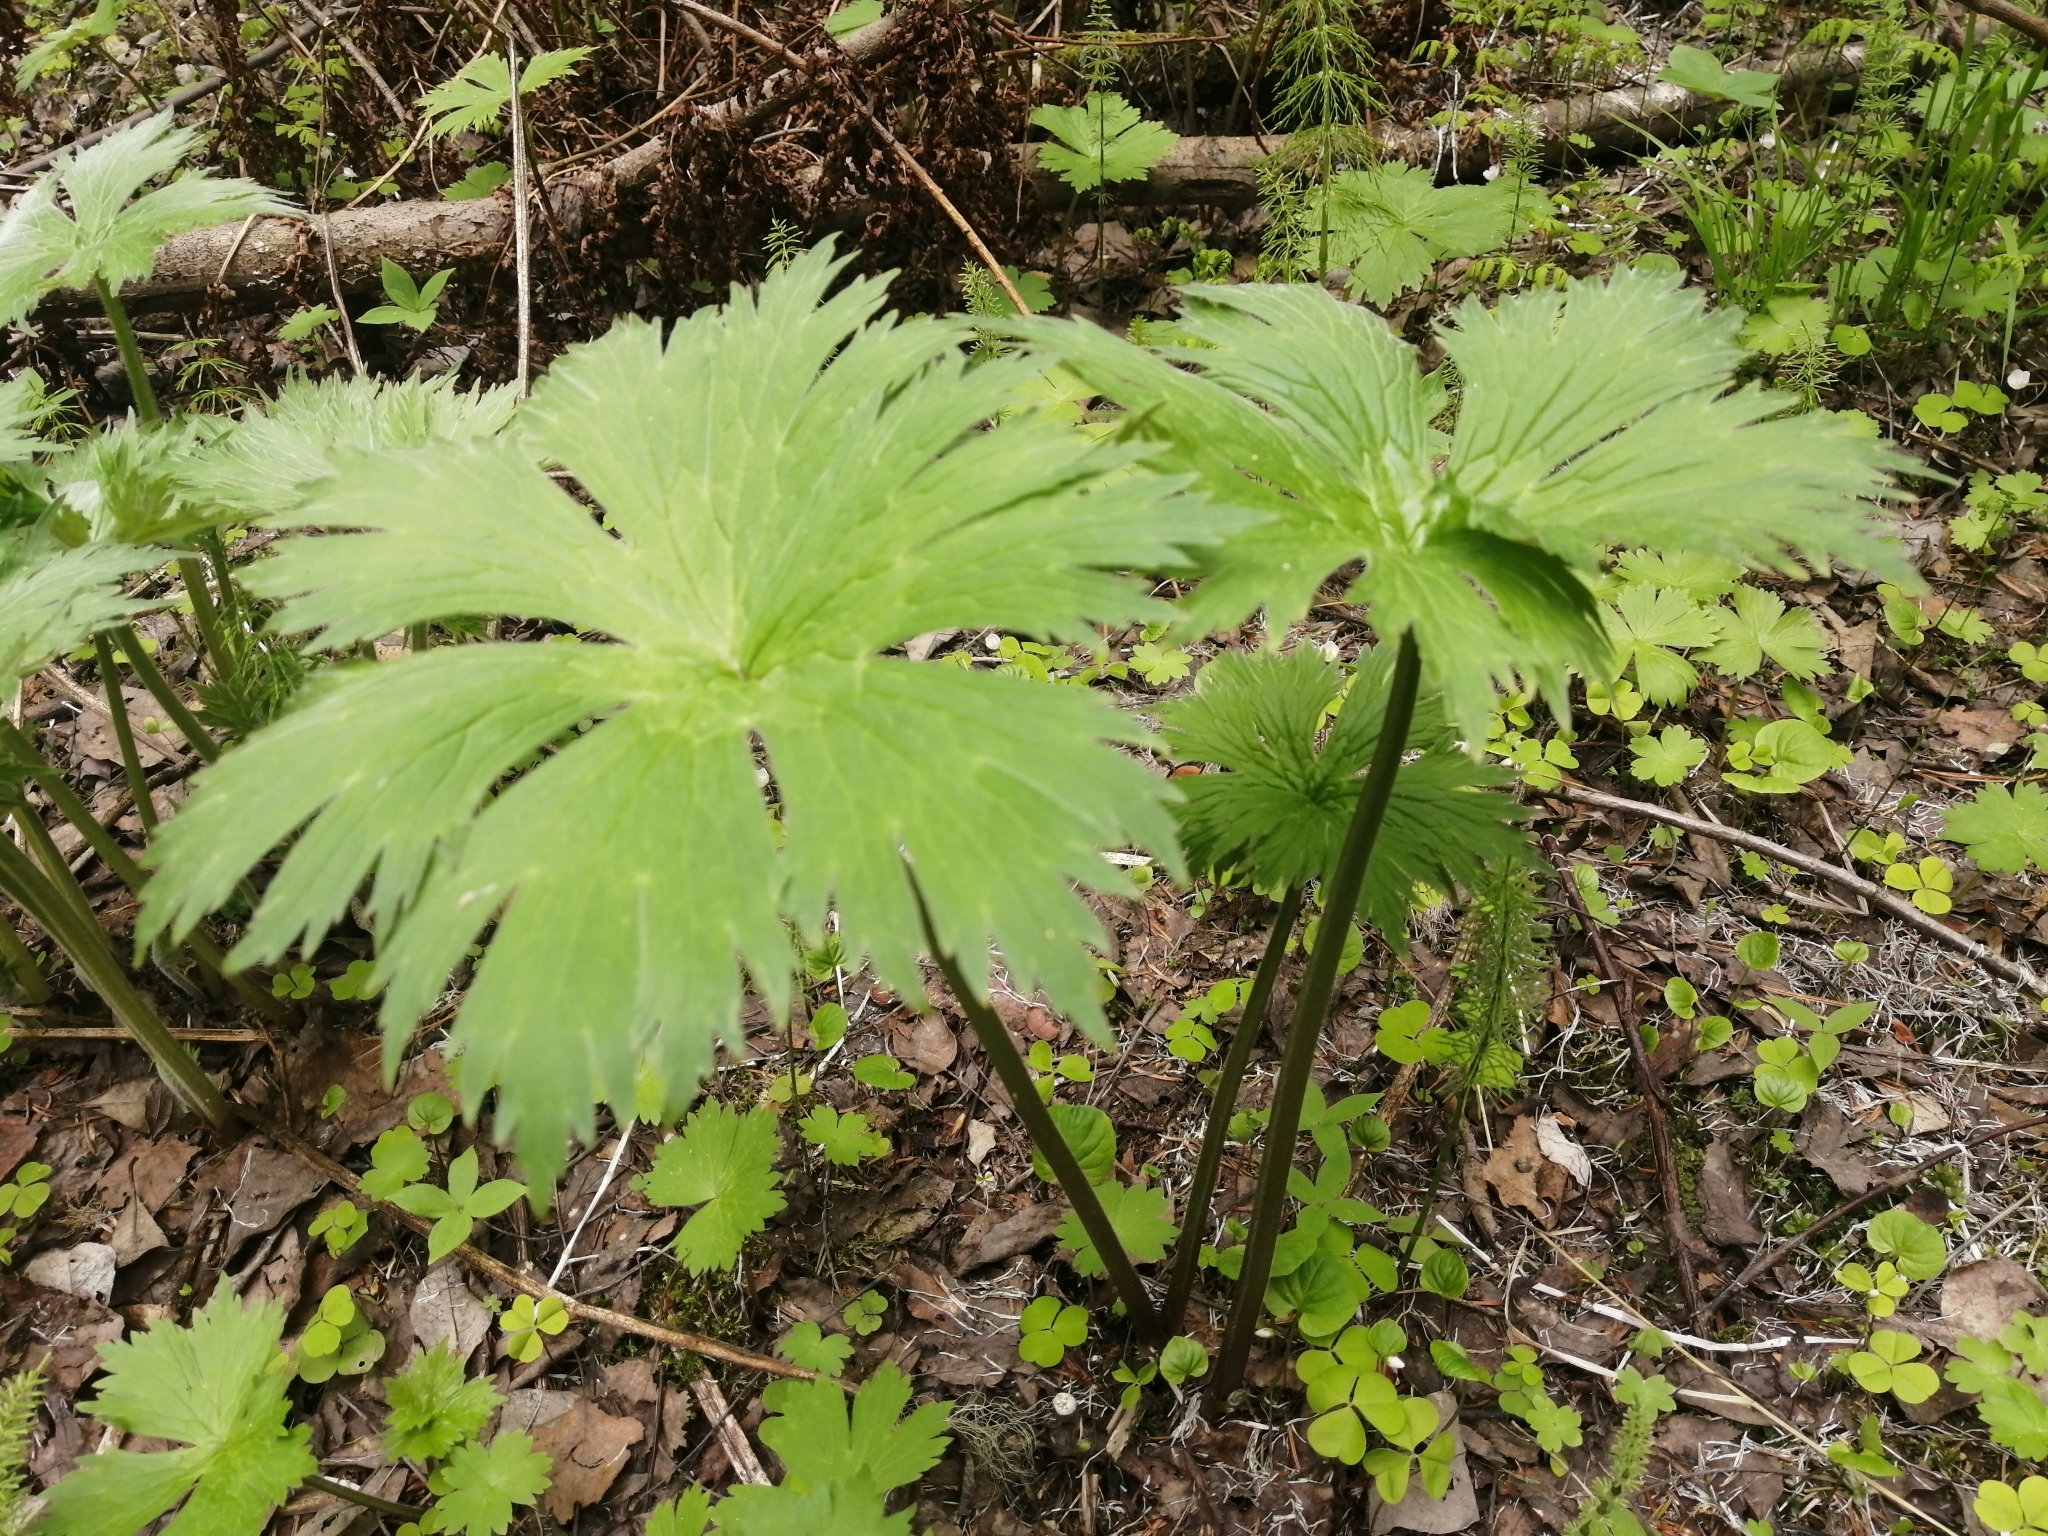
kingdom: Plantae
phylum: Tracheophyta
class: Magnoliopsida
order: Ranunculales
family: Ranunculaceae
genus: Aconitum
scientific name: Aconitum septentrionale
